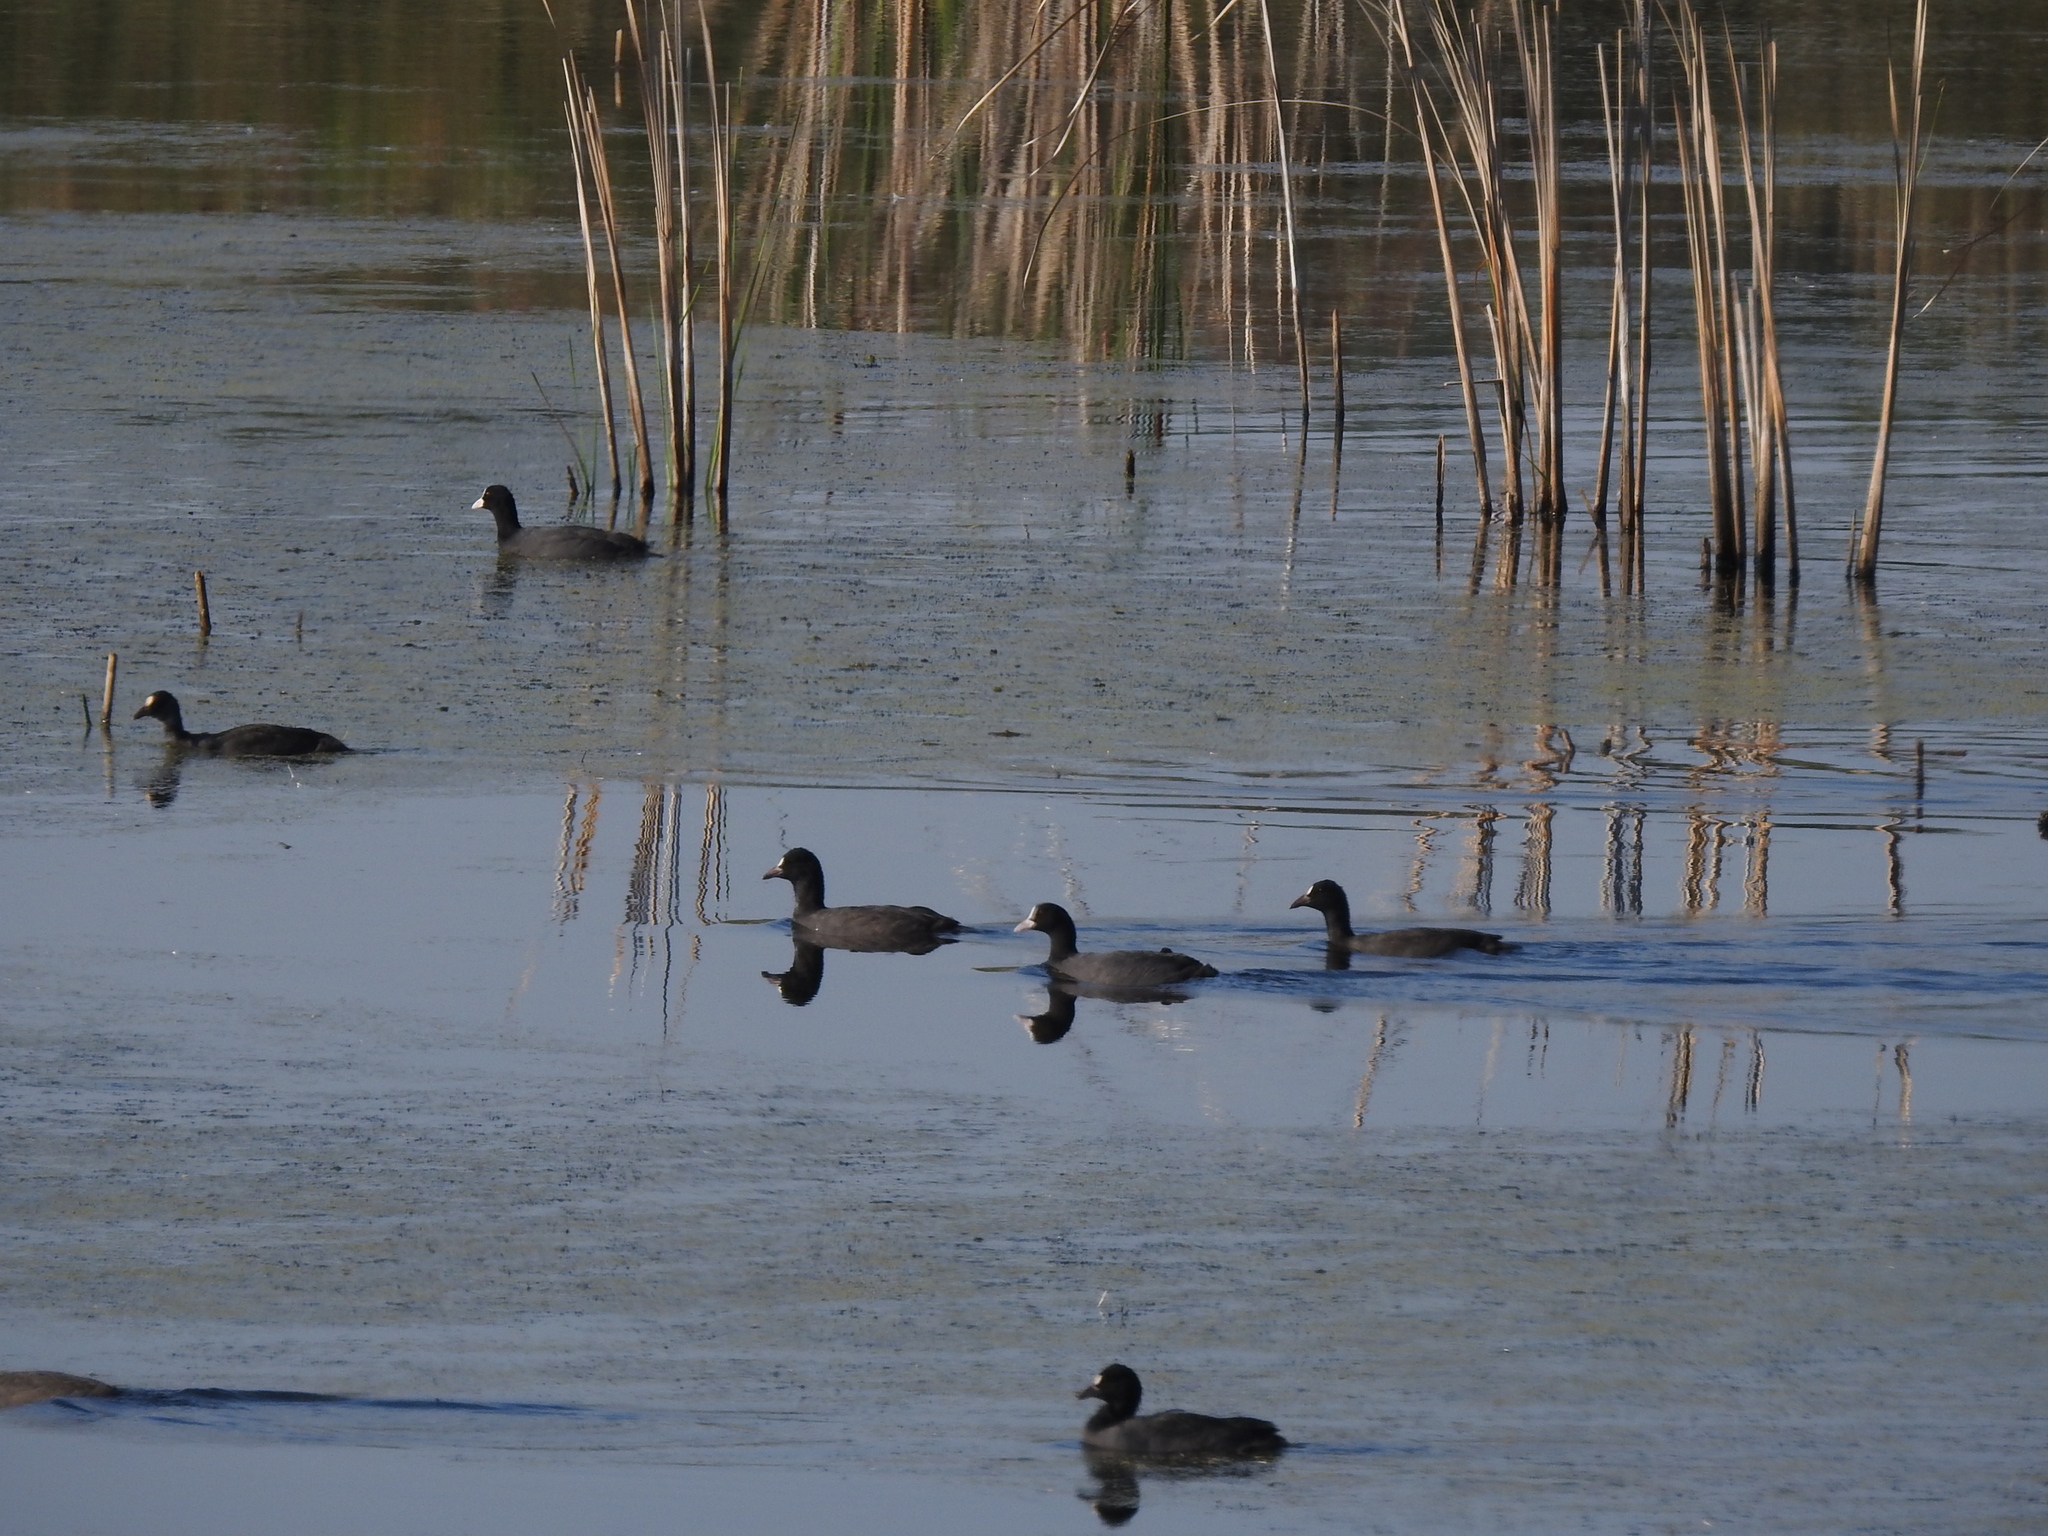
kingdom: Animalia
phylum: Chordata
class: Aves
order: Gruiformes
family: Rallidae
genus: Fulica
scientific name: Fulica atra
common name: Eurasian coot
